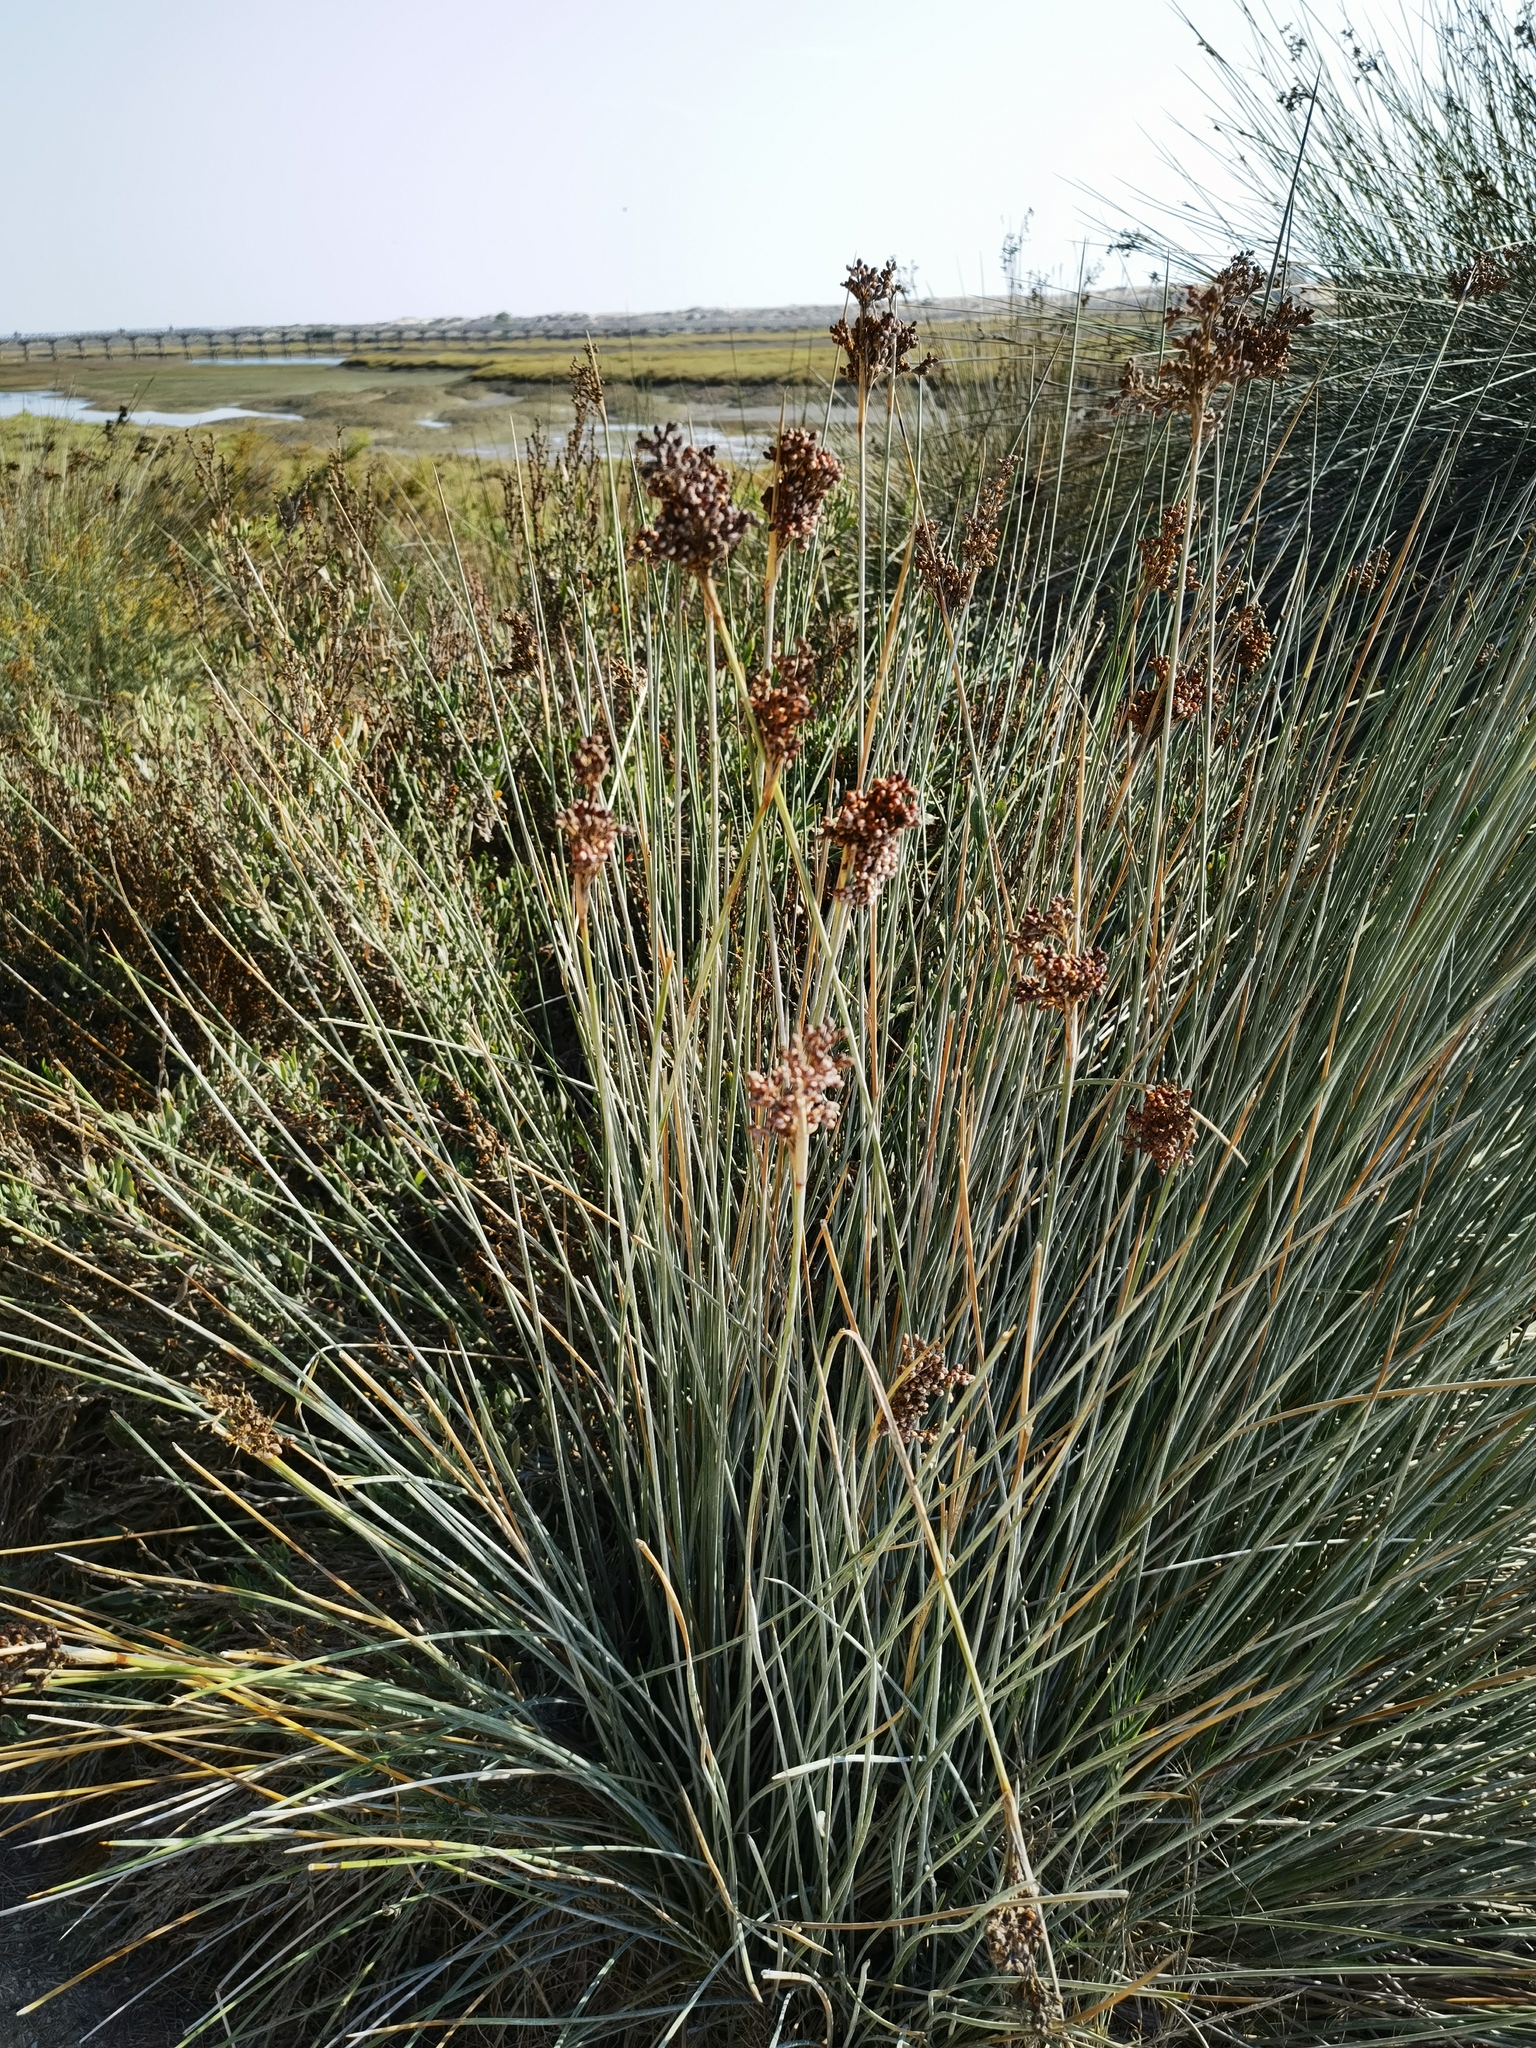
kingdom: Plantae
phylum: Tracheophyta
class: Liliopsida
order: Poales
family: Juncaceae
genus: Juncus
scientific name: Juncus acutus
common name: Sharp rush
